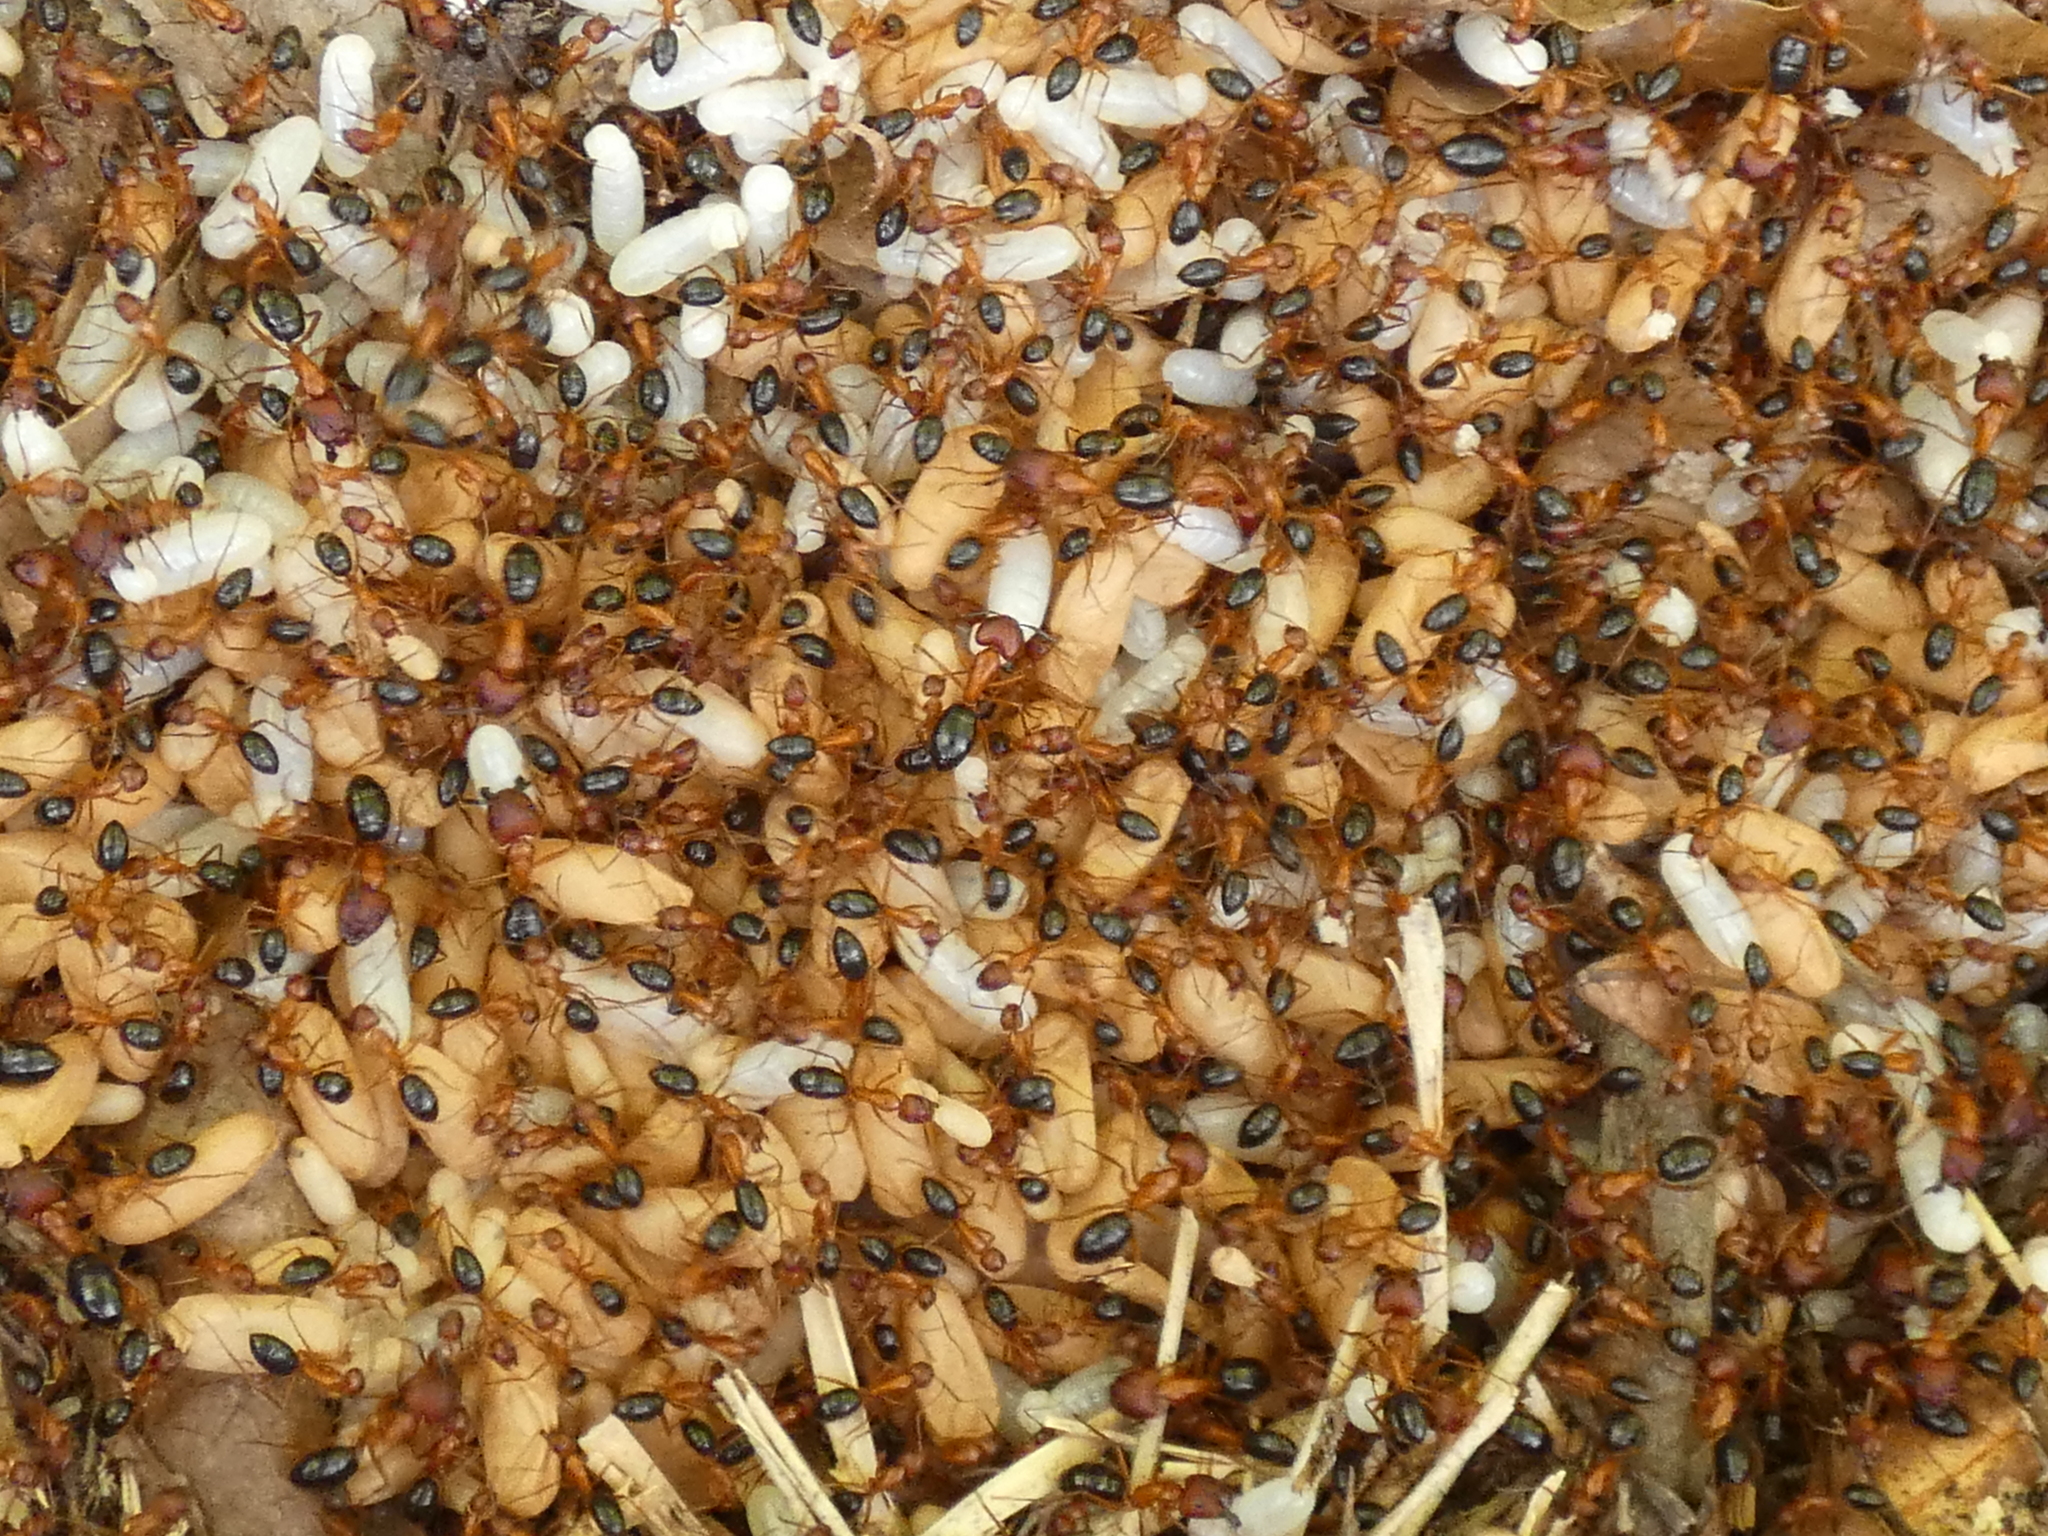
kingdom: Animalia
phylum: Arthropoda
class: Insecta
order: Hymenoptera
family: Formicidae
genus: Camponotus
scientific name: Camponotus floridanus
